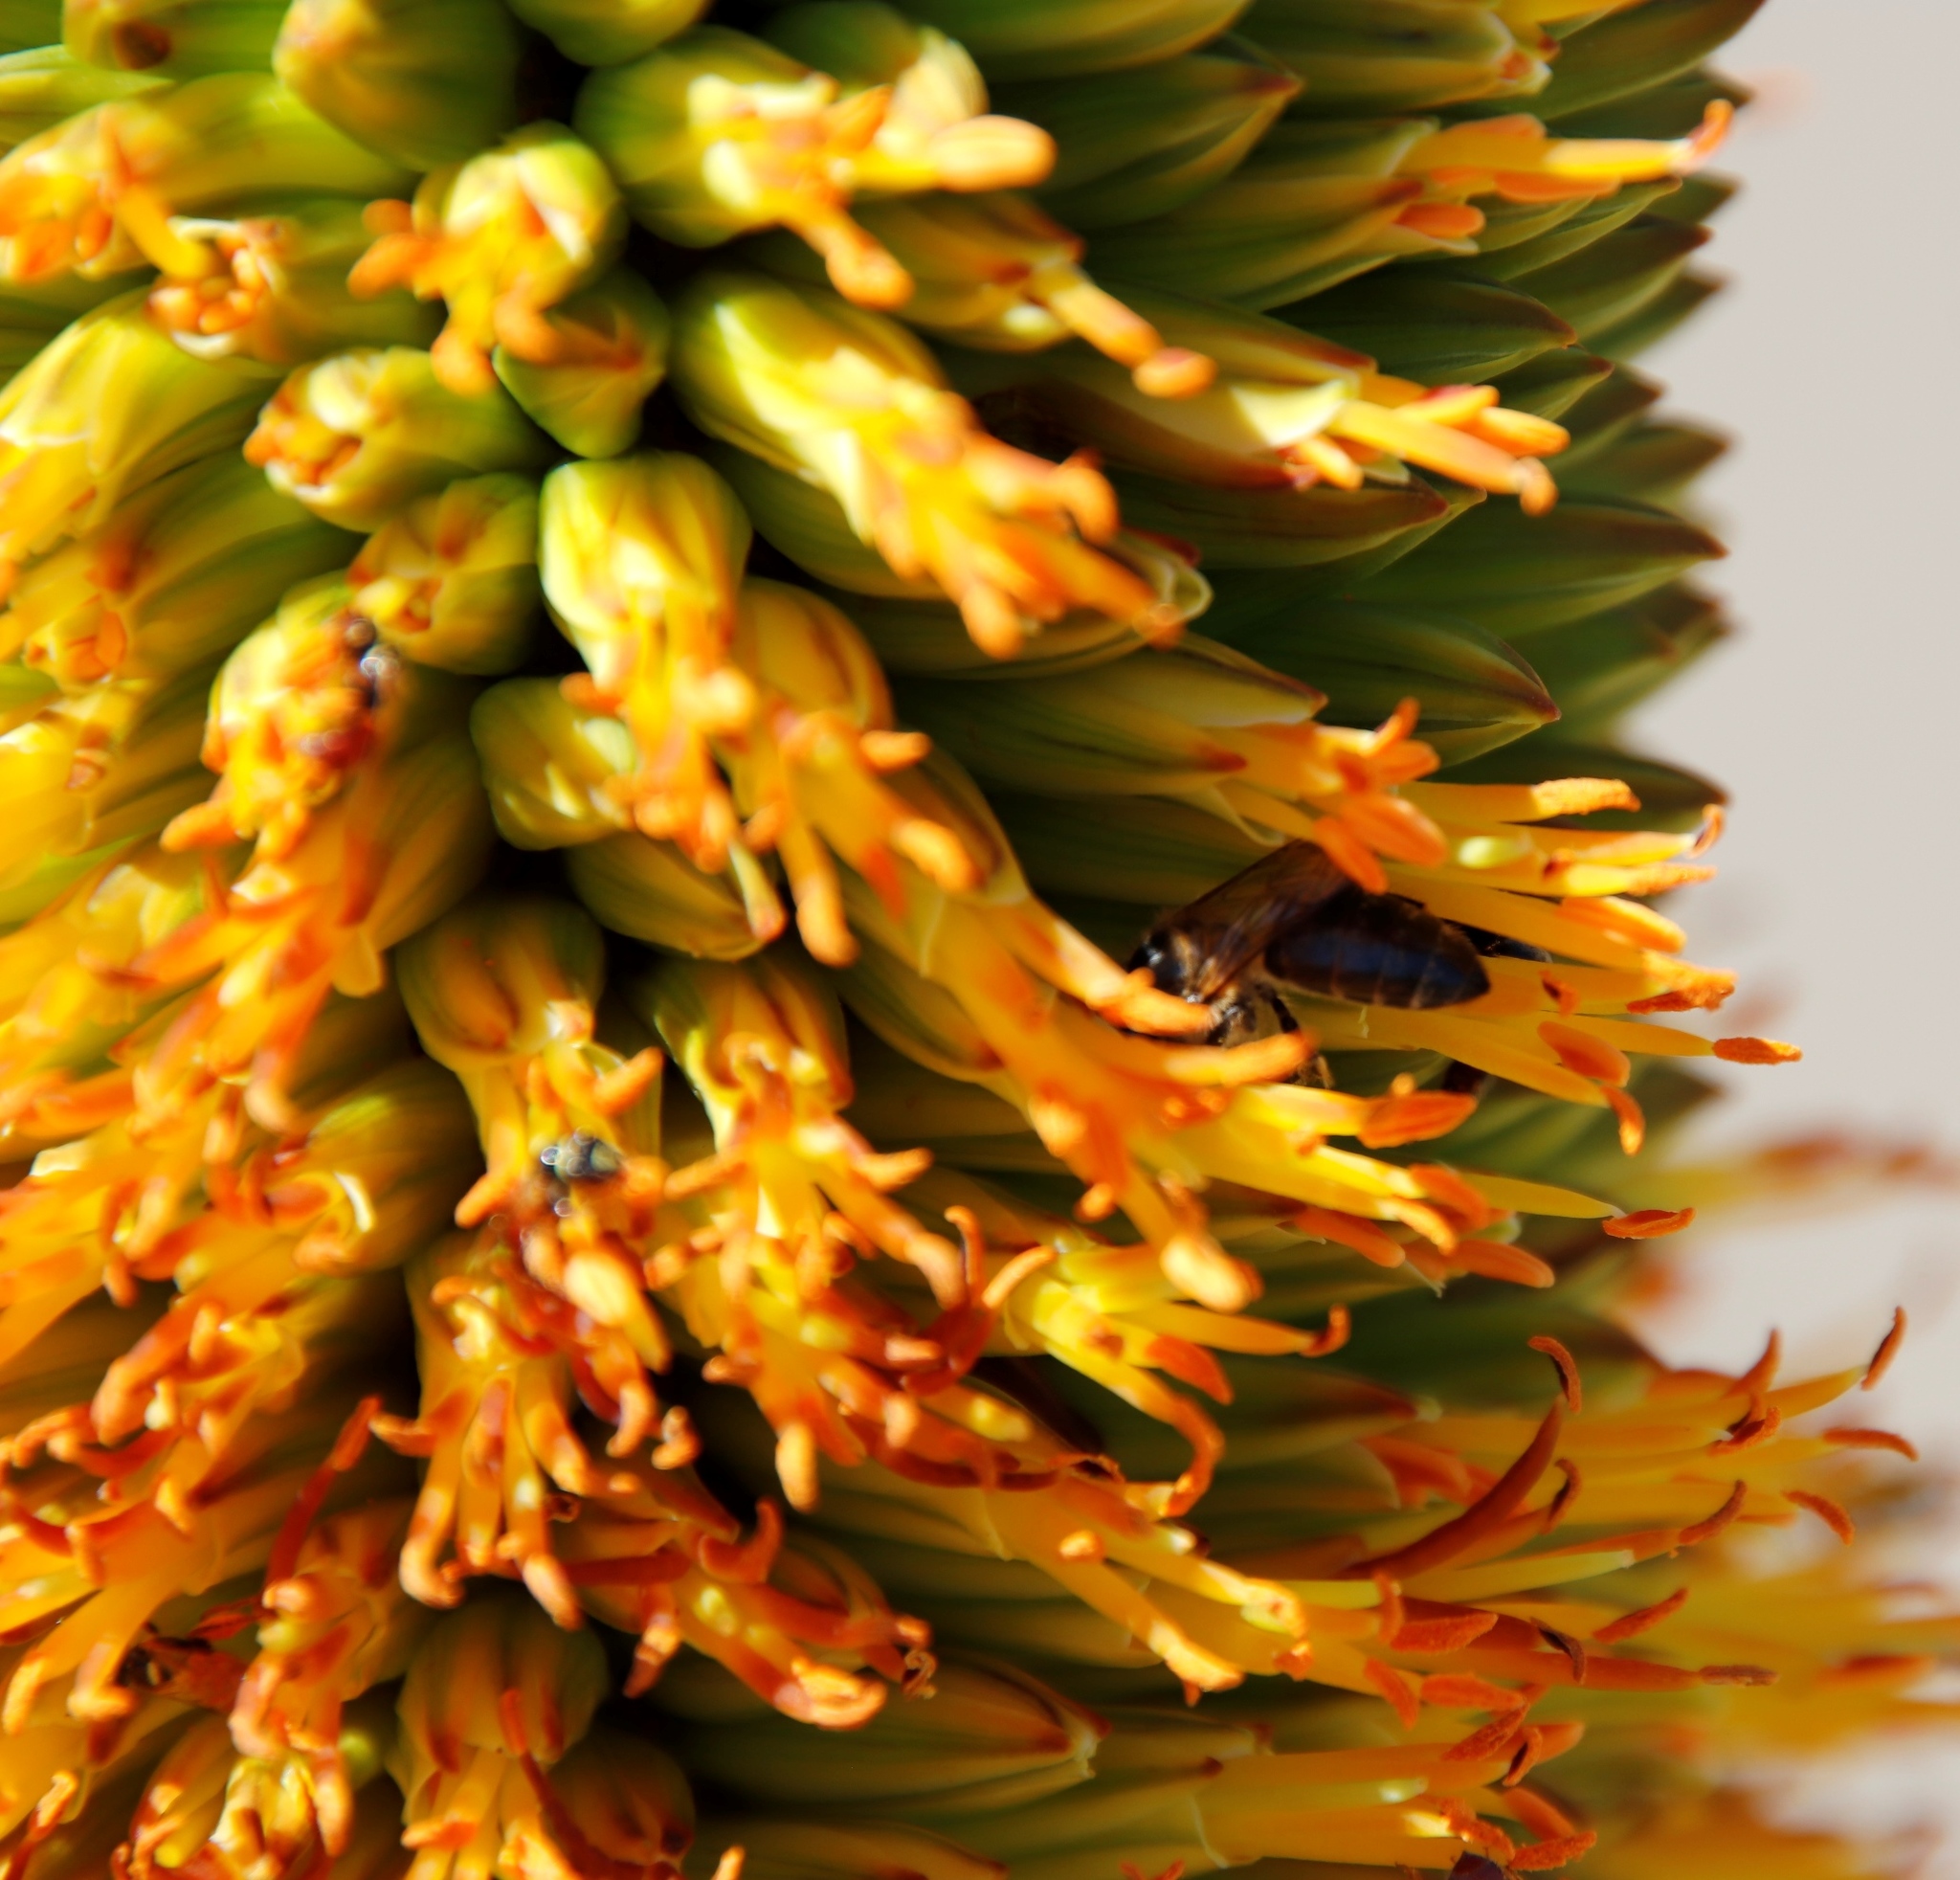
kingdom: Animalia
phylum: Arthropoda
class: Insecta
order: Hymenoptera
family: Apidae
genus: Apis
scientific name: Apis mellifera
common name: Honey bee
